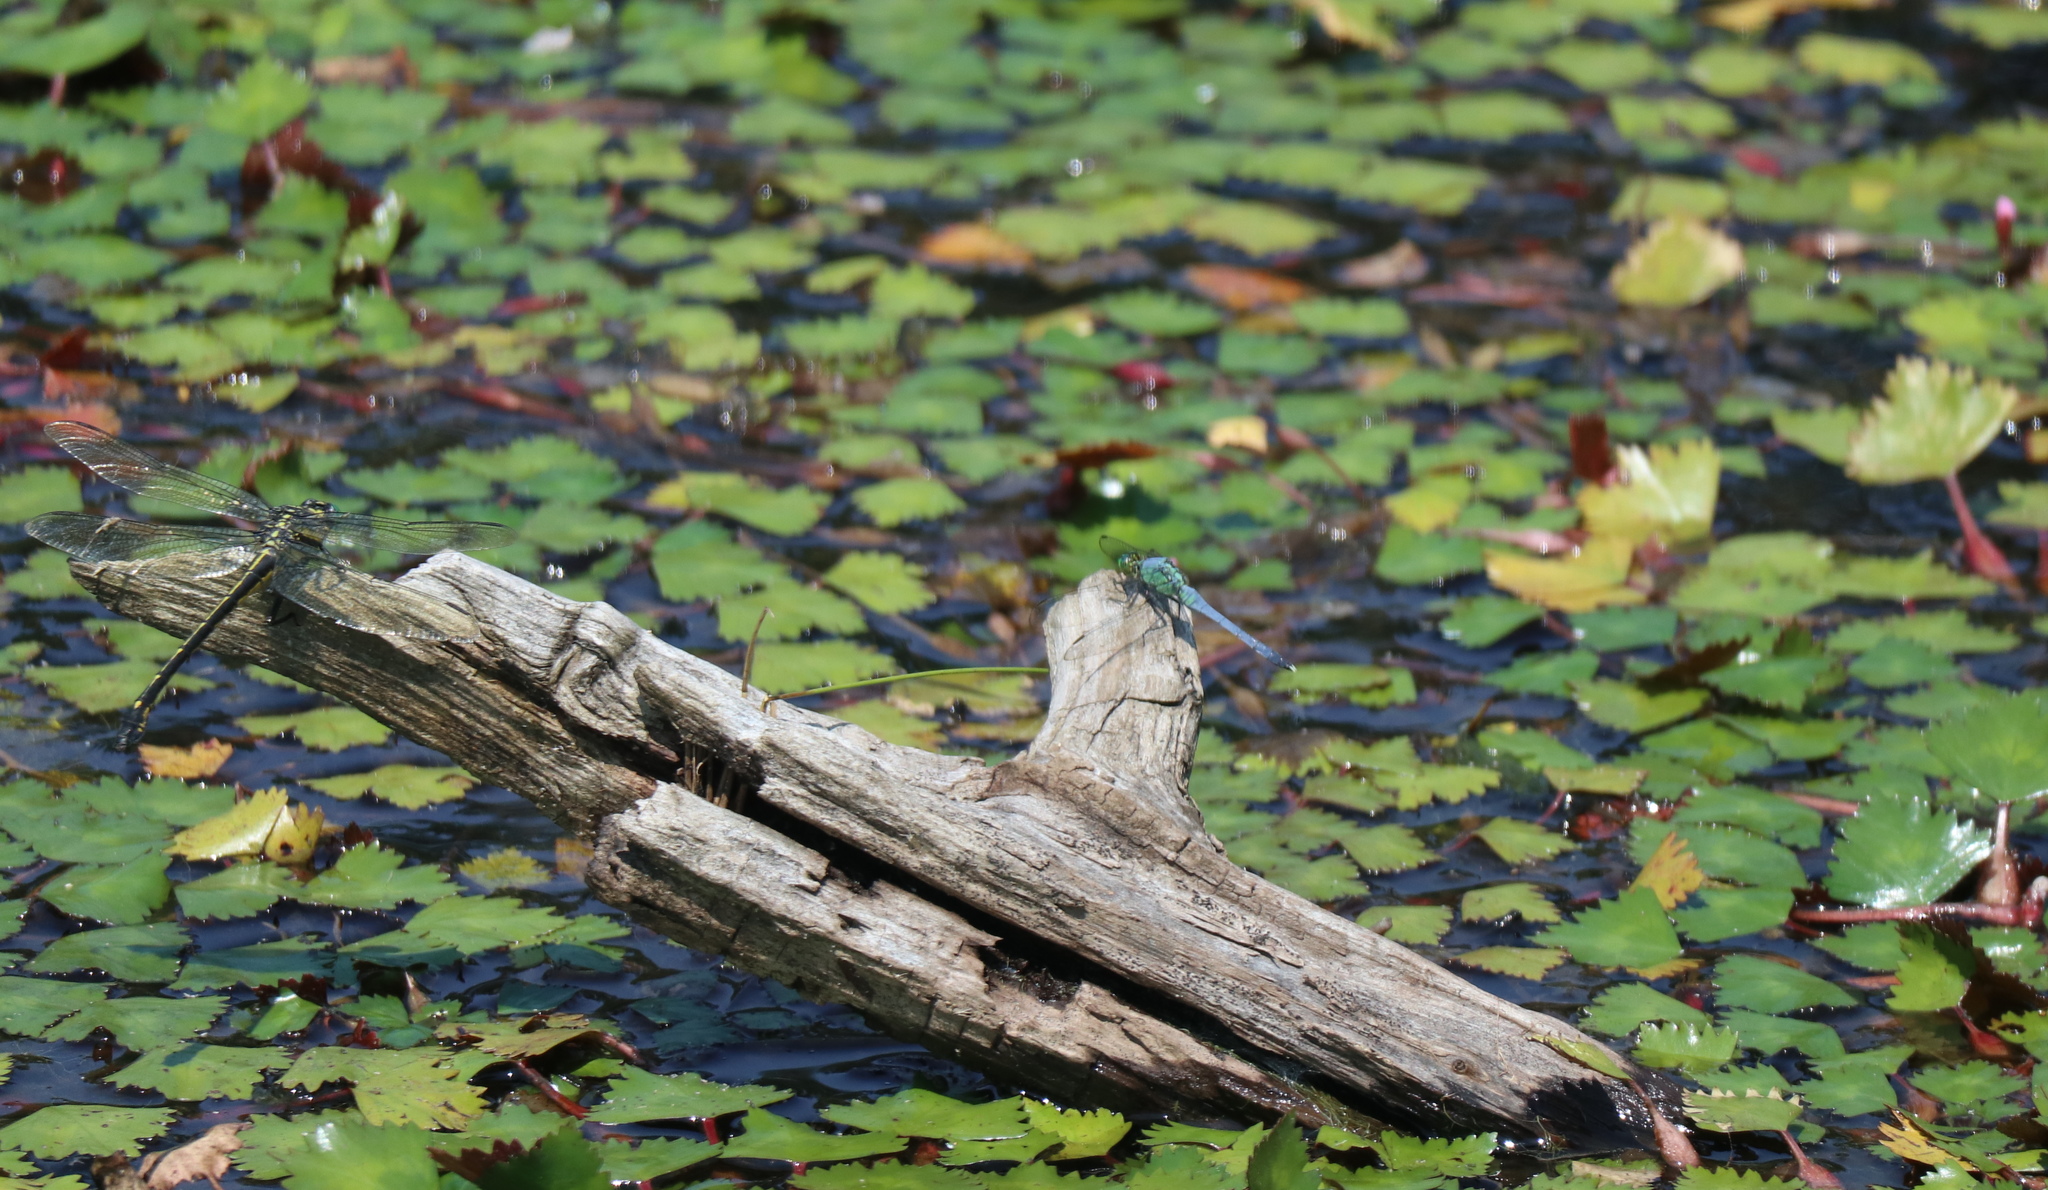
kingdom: Animalia
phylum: Arthropoda
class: Insecta
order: Odonata
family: Libellulidae
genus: Erythemis
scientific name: Erythemis simplicicollis
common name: Eastern pondhawk
